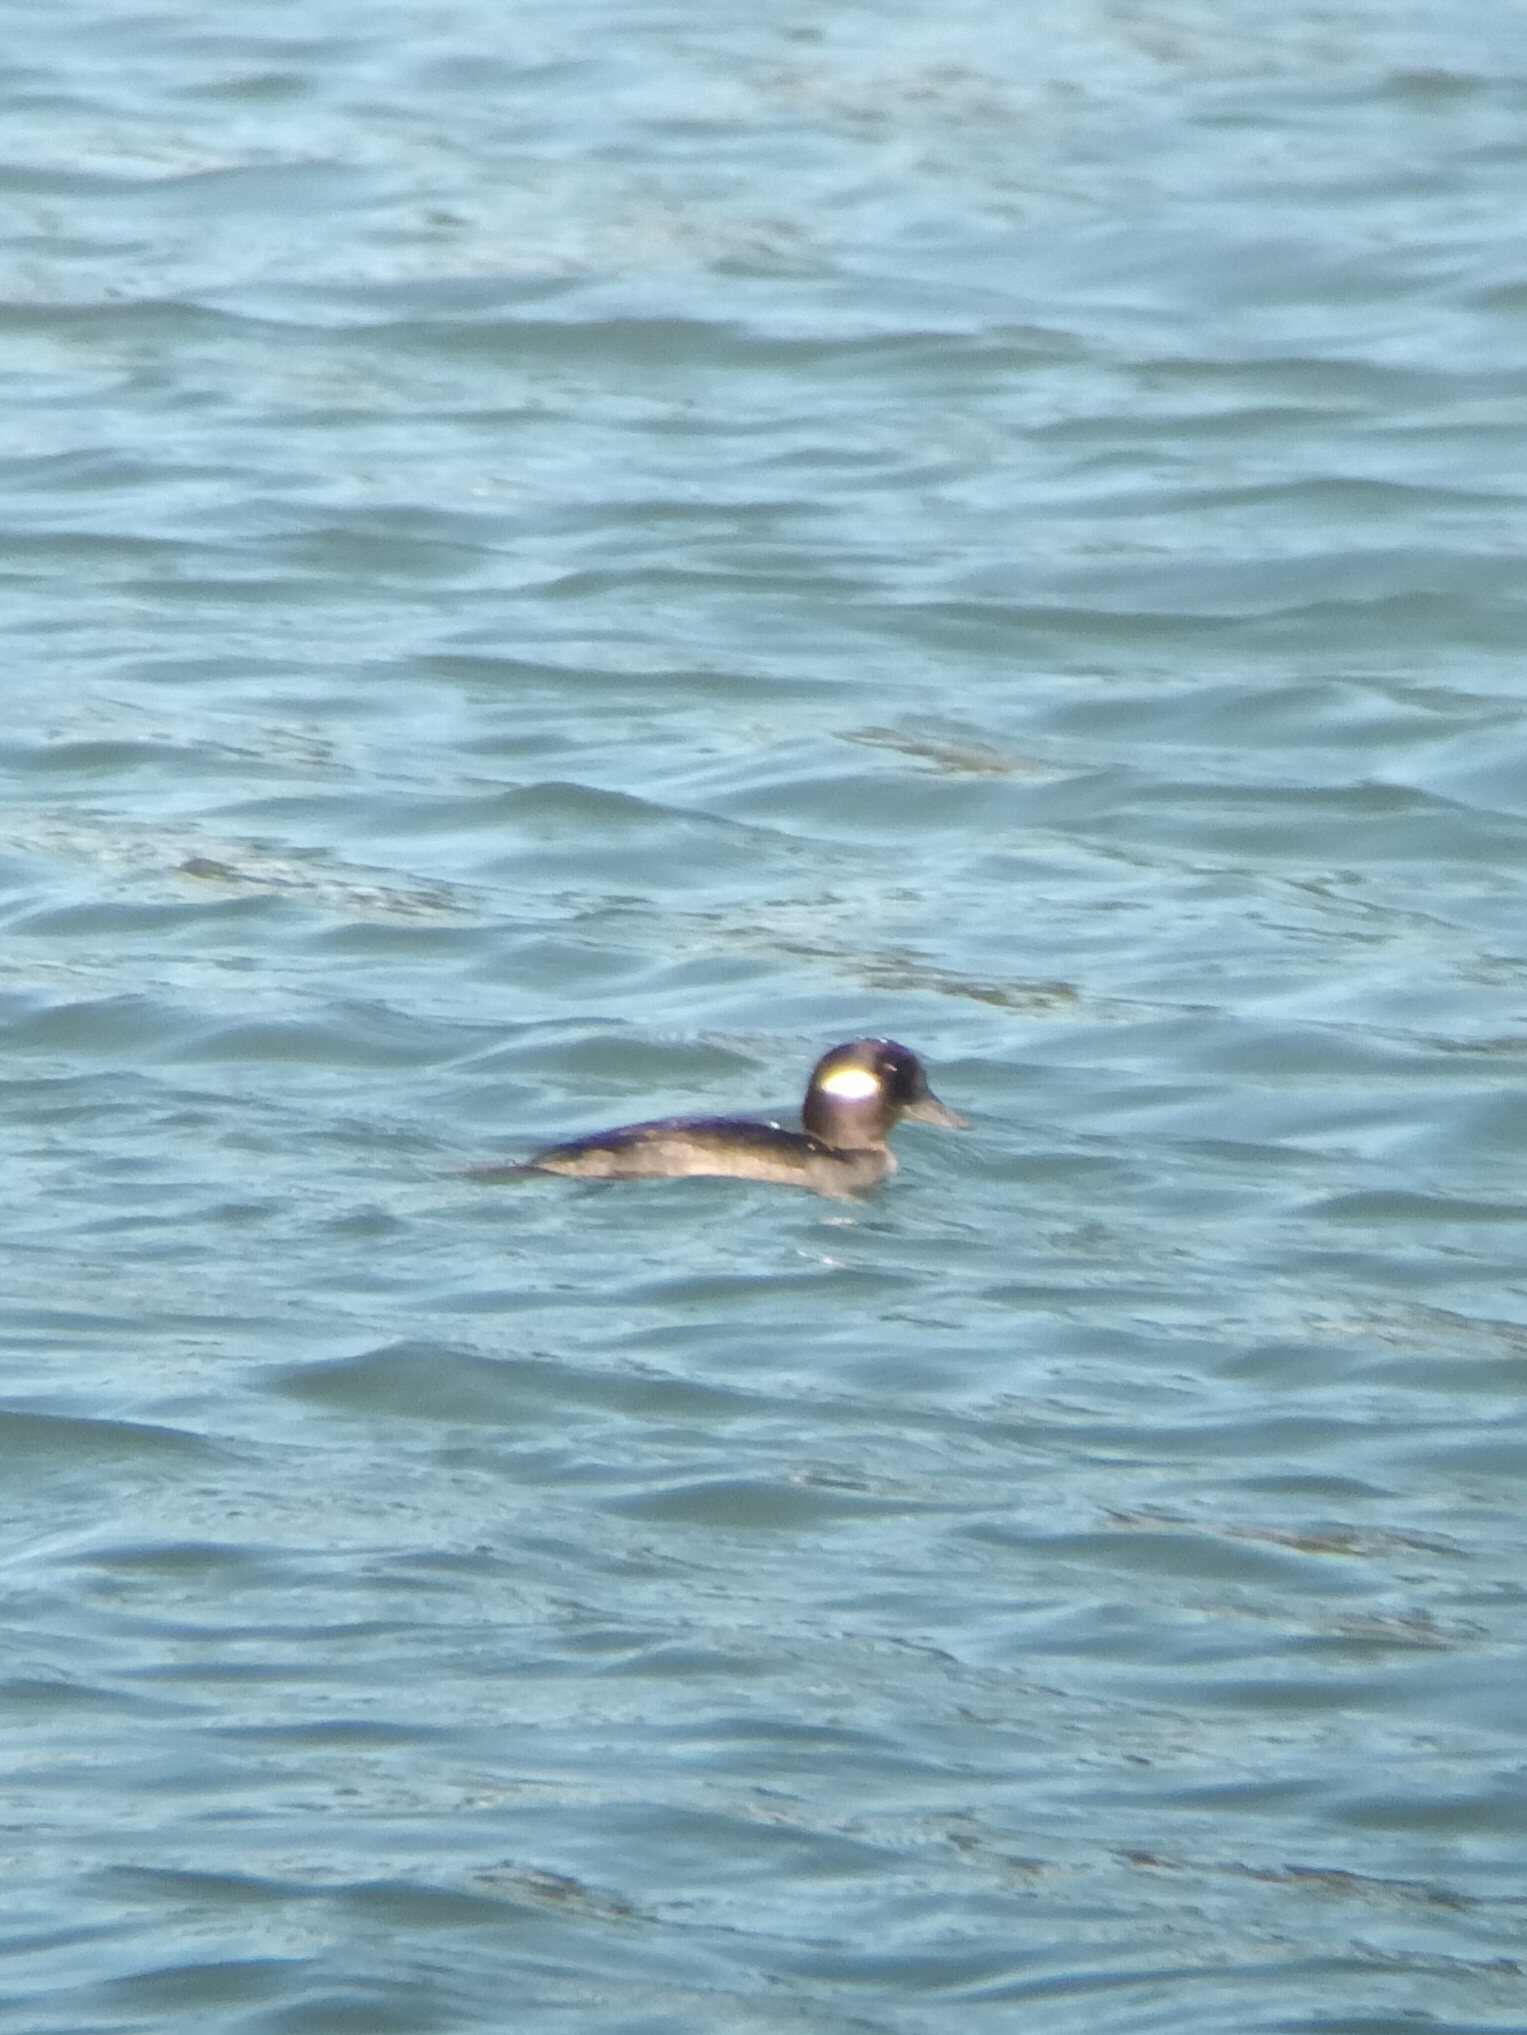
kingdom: Animalia
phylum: Chordata
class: Aves
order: Anseriformes
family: Anatidae
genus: Bucephala
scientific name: Bucephala albeola
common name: Bufflehead
